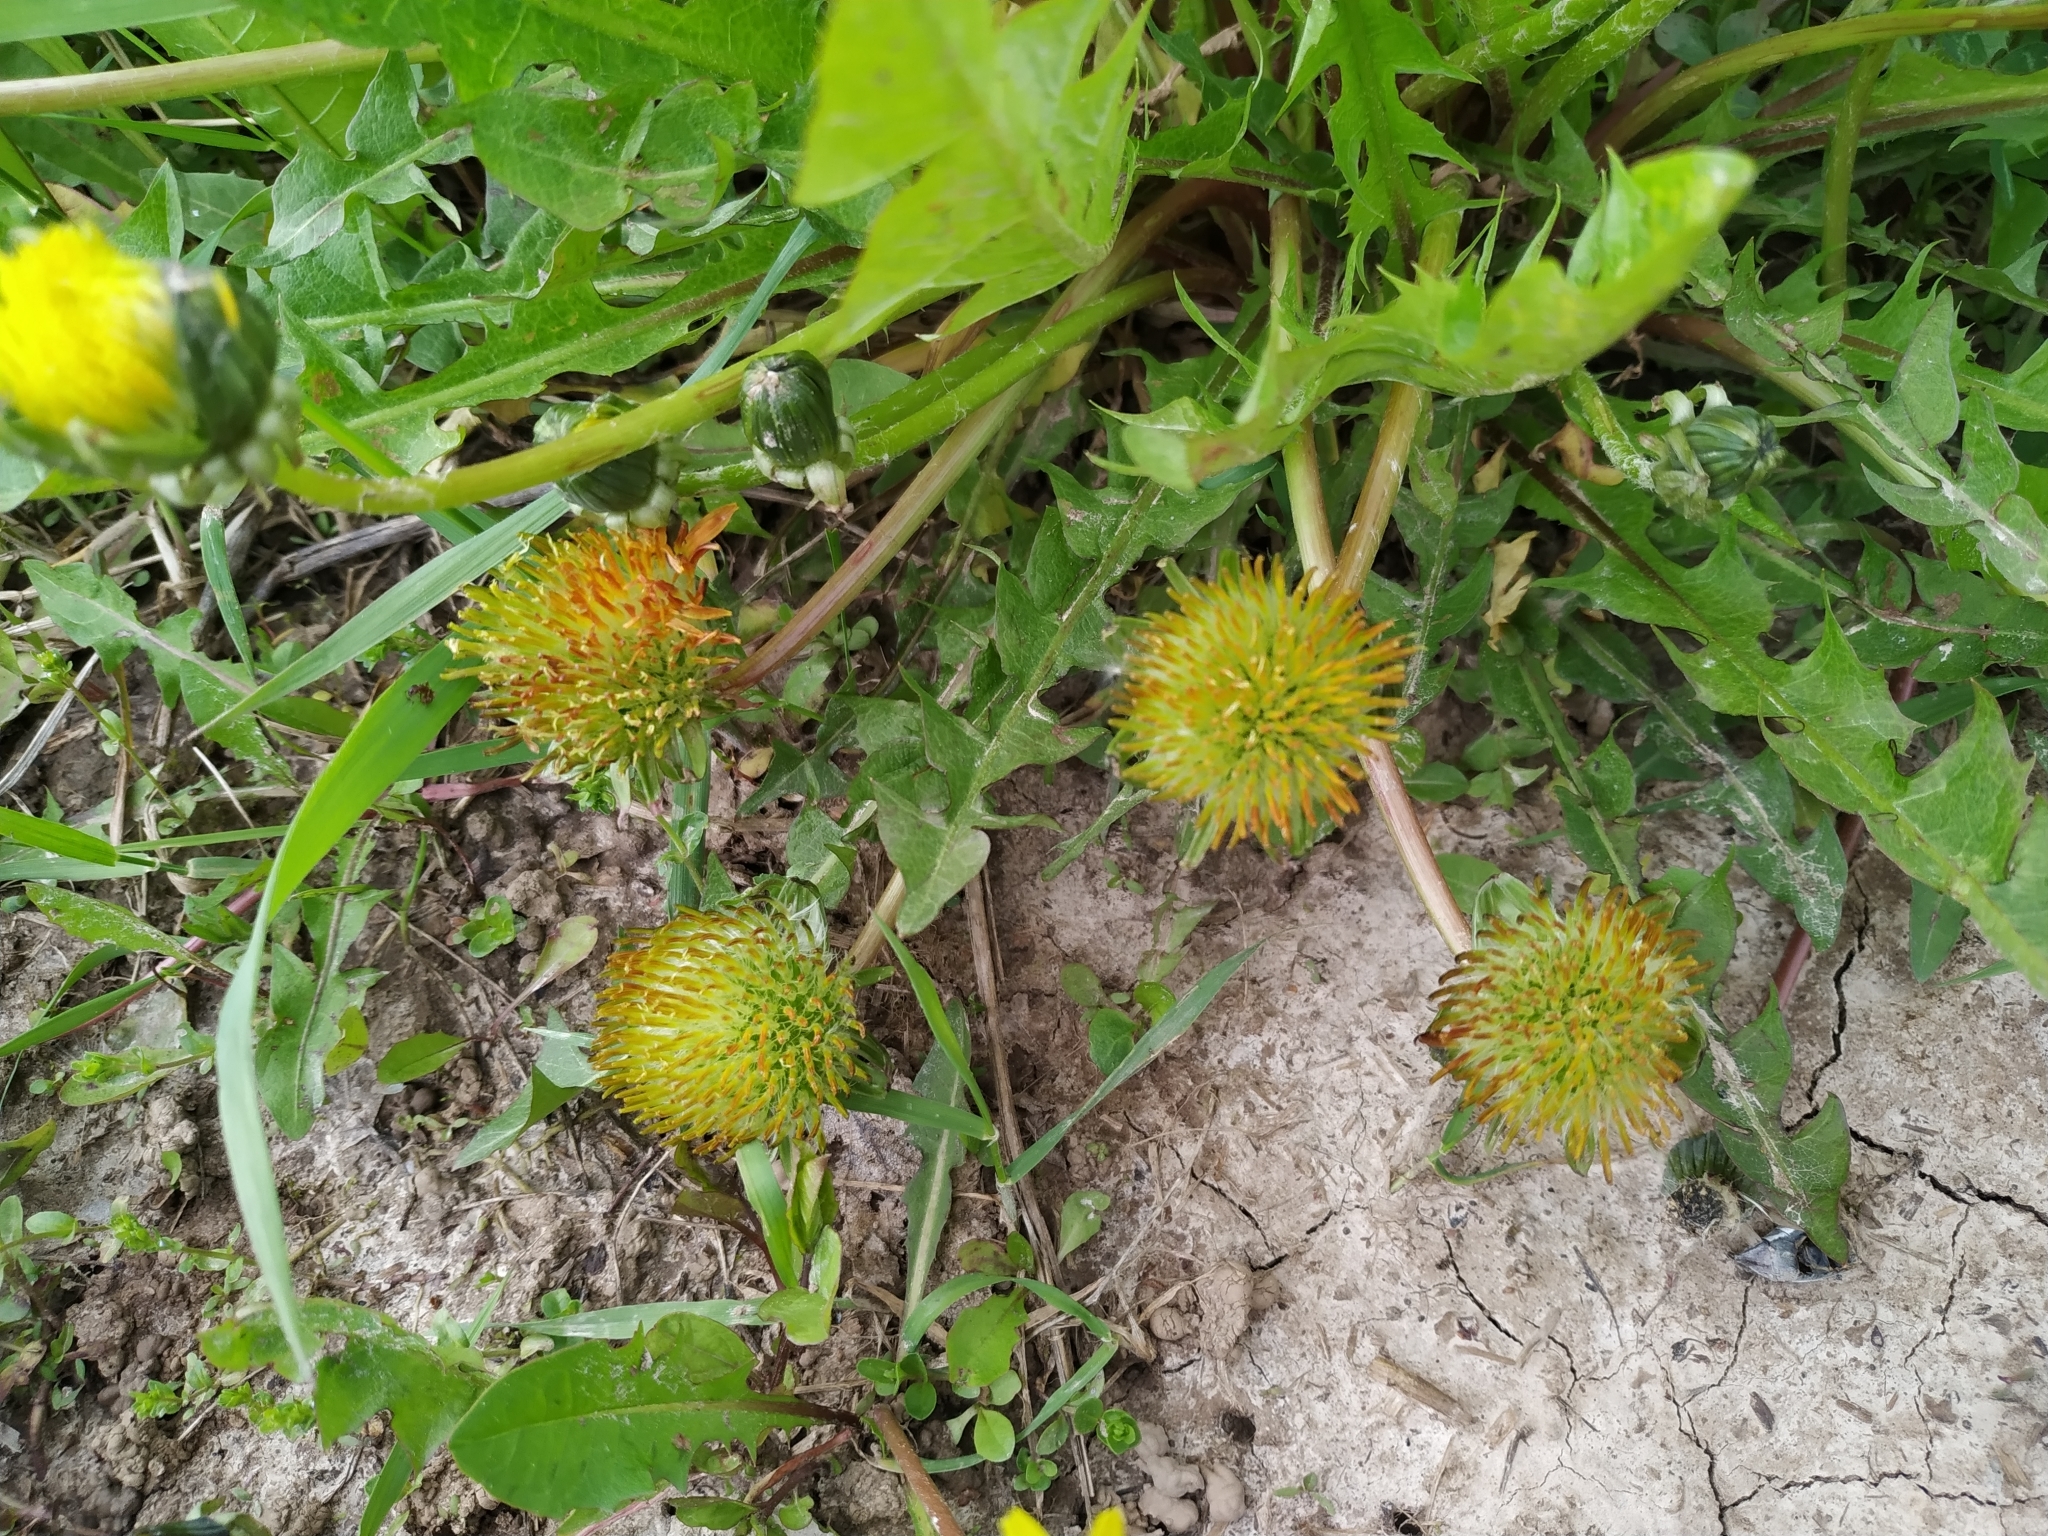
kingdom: Plantae
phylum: Tracheophyta
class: Magnoliopsida
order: Asterales
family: Asteraceae
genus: Taraxacum
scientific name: Taraxacum officinale
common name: Common dandelion
